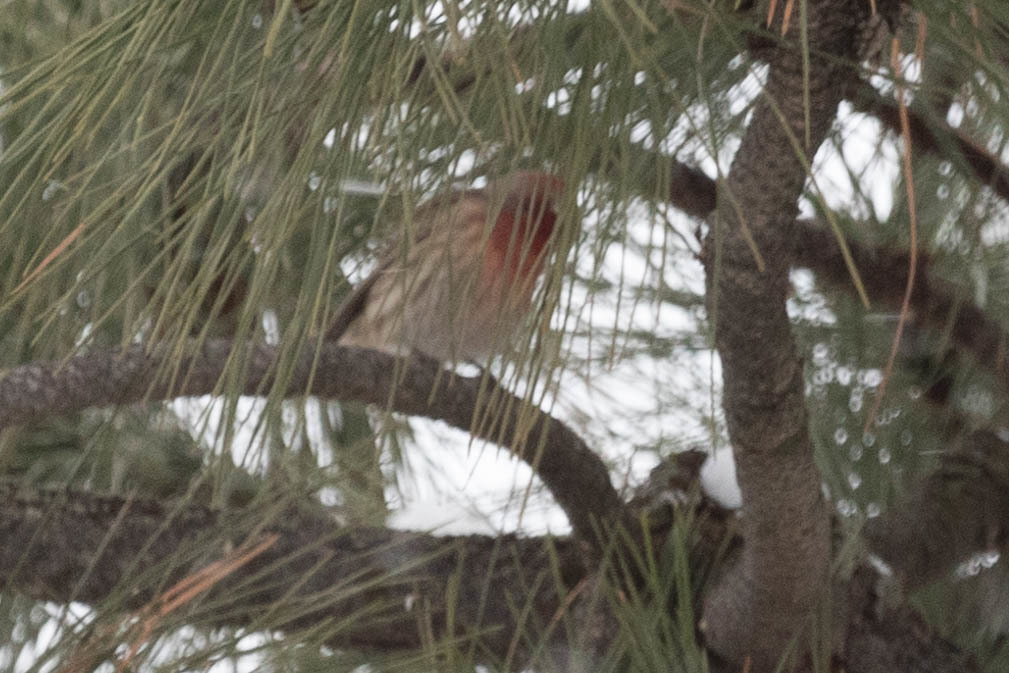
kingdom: Animalia
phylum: Chordata
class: Aves
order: Passeriformes
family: Fringillidae
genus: Haemorhous
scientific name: Haemorhous mexicanus
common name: House finch
